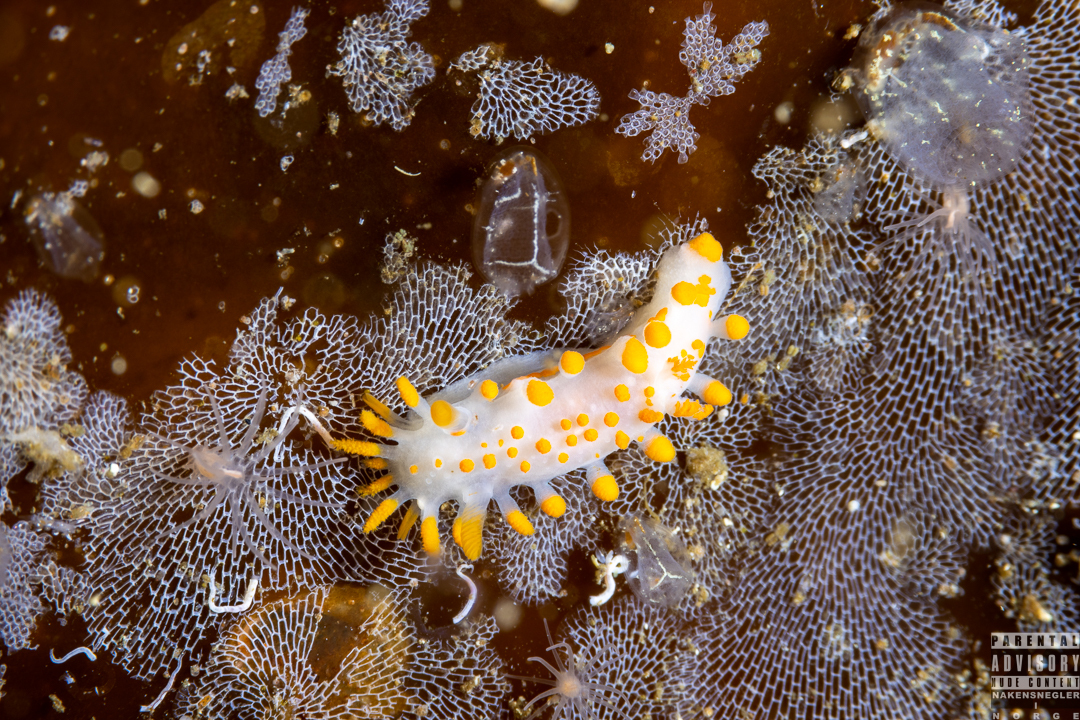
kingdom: Animalia
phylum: Mollusca
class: Gastropoda
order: Nudibranchia
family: Polyceridae
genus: Limacia
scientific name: Limacia clavigera
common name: Orange-clubbed sea slug
